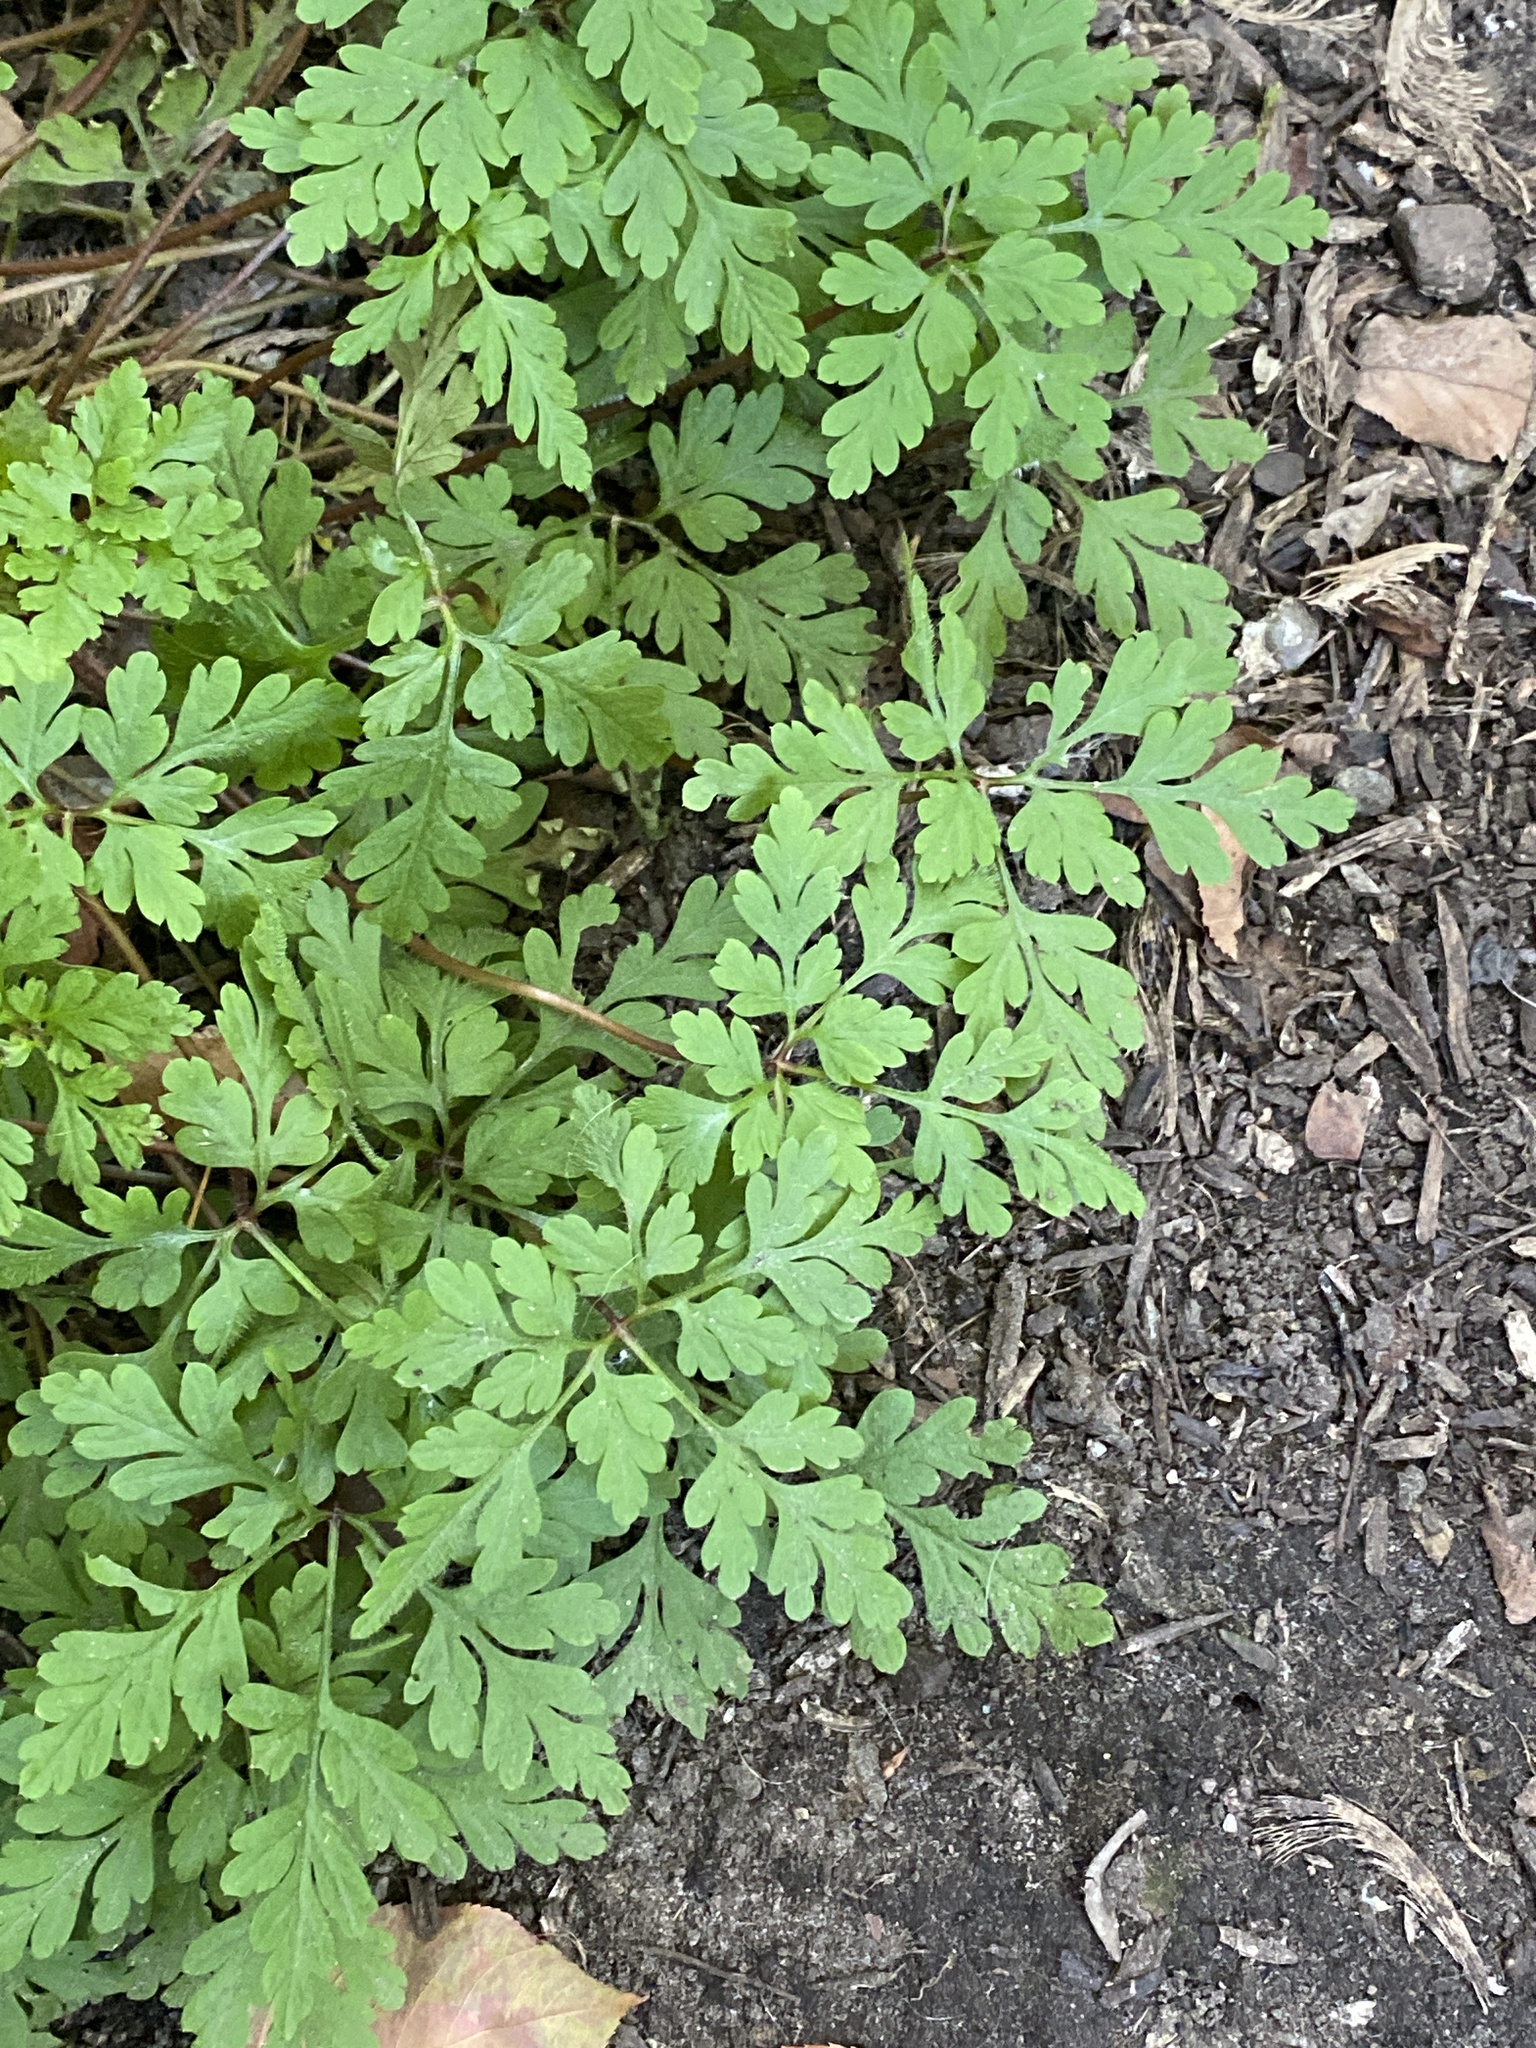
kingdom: Plantae
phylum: Tracheophyta
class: Magnoliopsida
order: Geraniales
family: Geraniaceae
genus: Geranium
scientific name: Geranium robertianum
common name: Herb-robert
